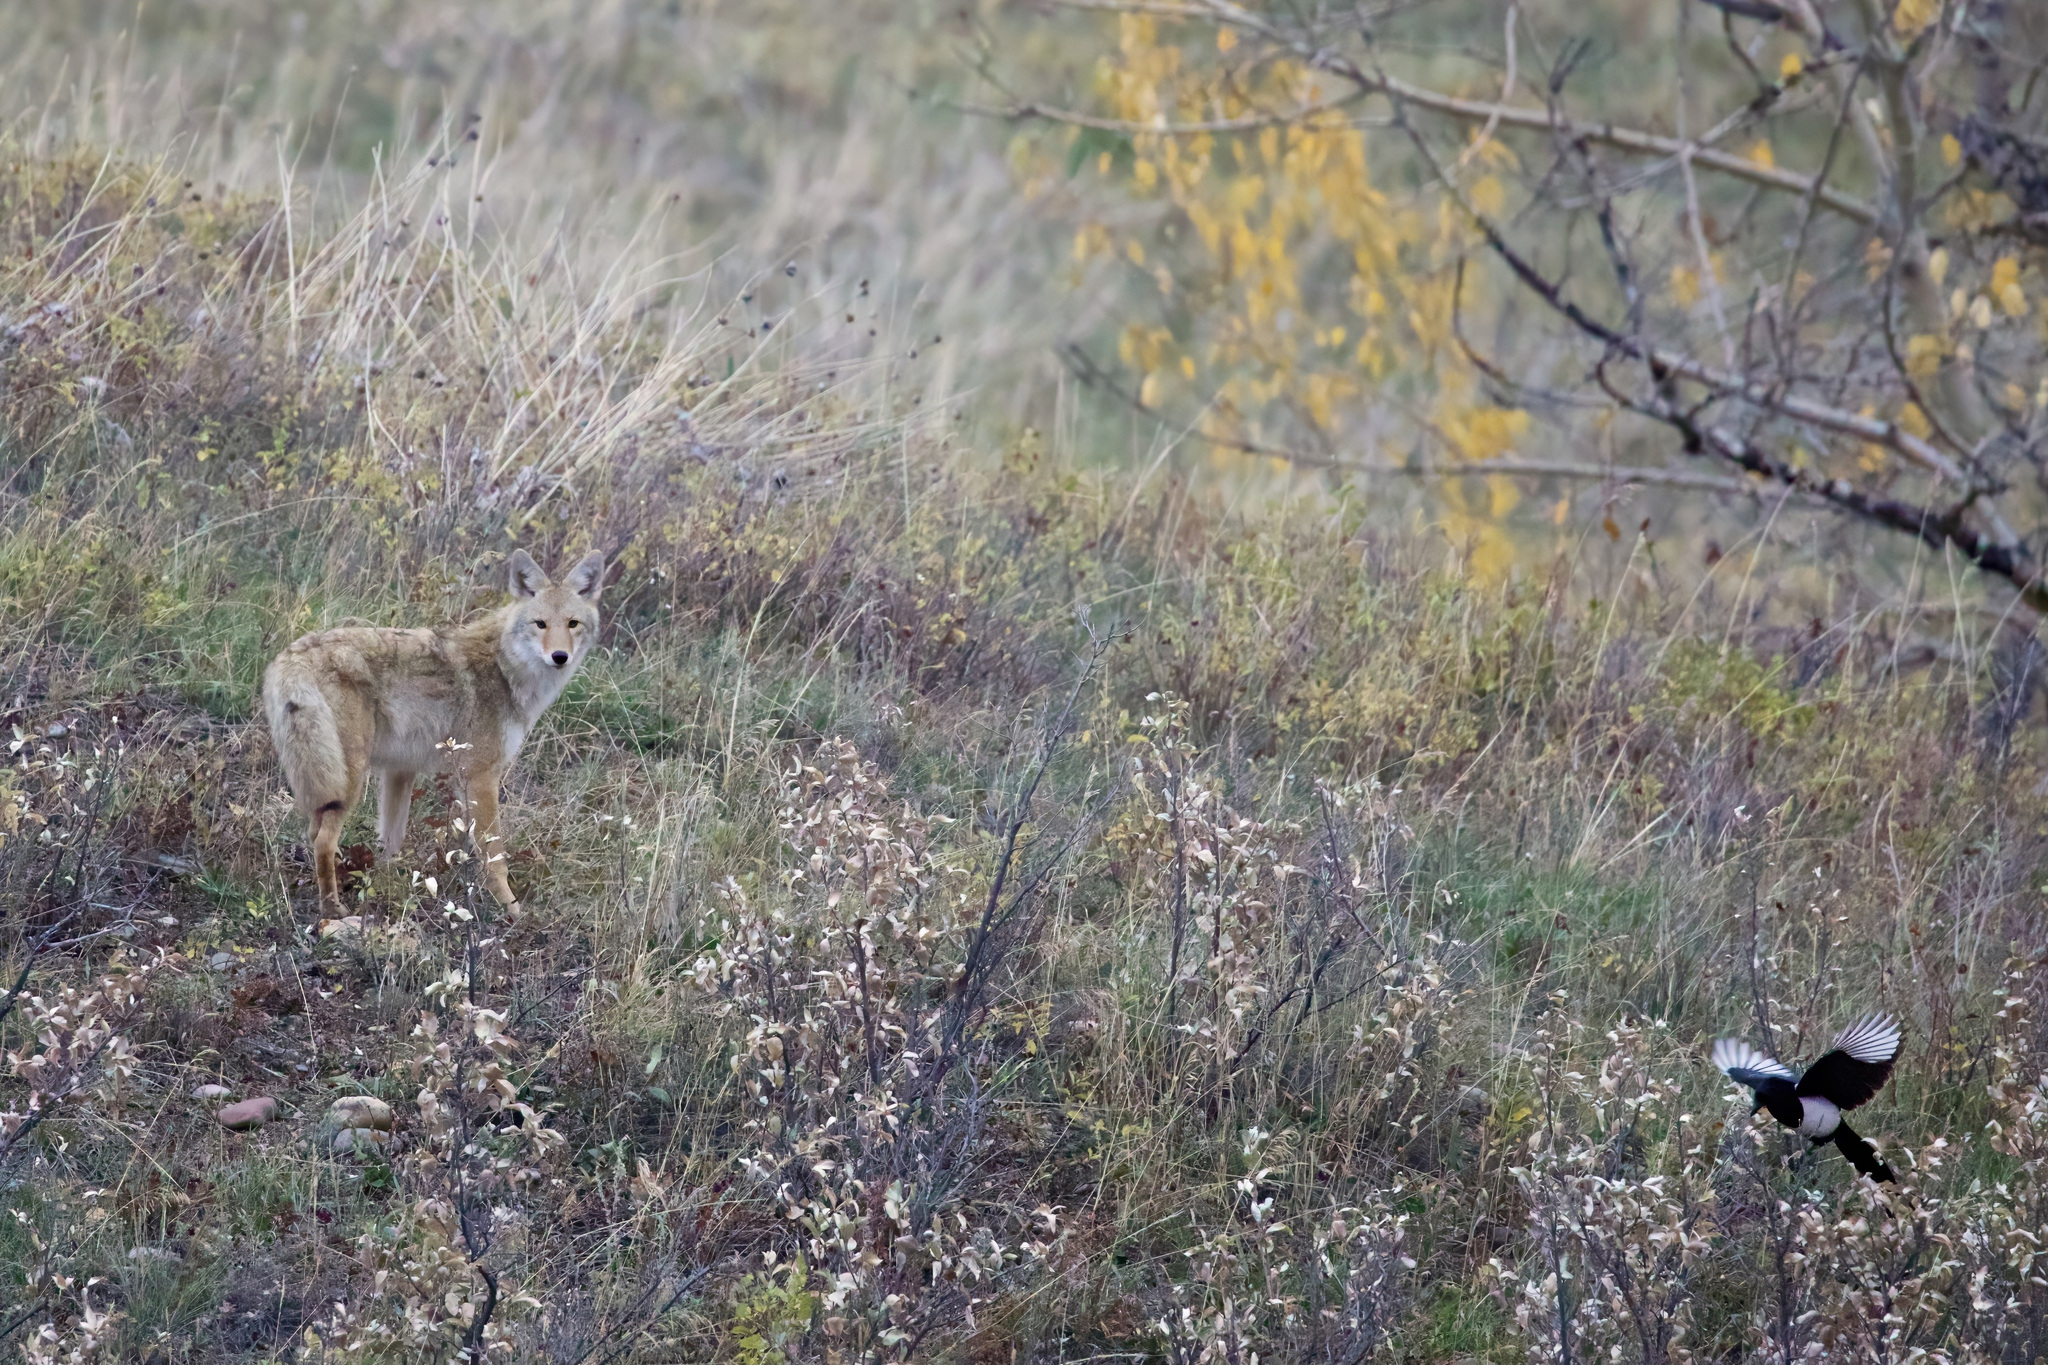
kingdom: Animalia
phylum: Chordata
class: Aves
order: Passeriformes
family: Corvidae
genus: Pica
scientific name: Pica hudsonia
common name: Black-billed magpie
